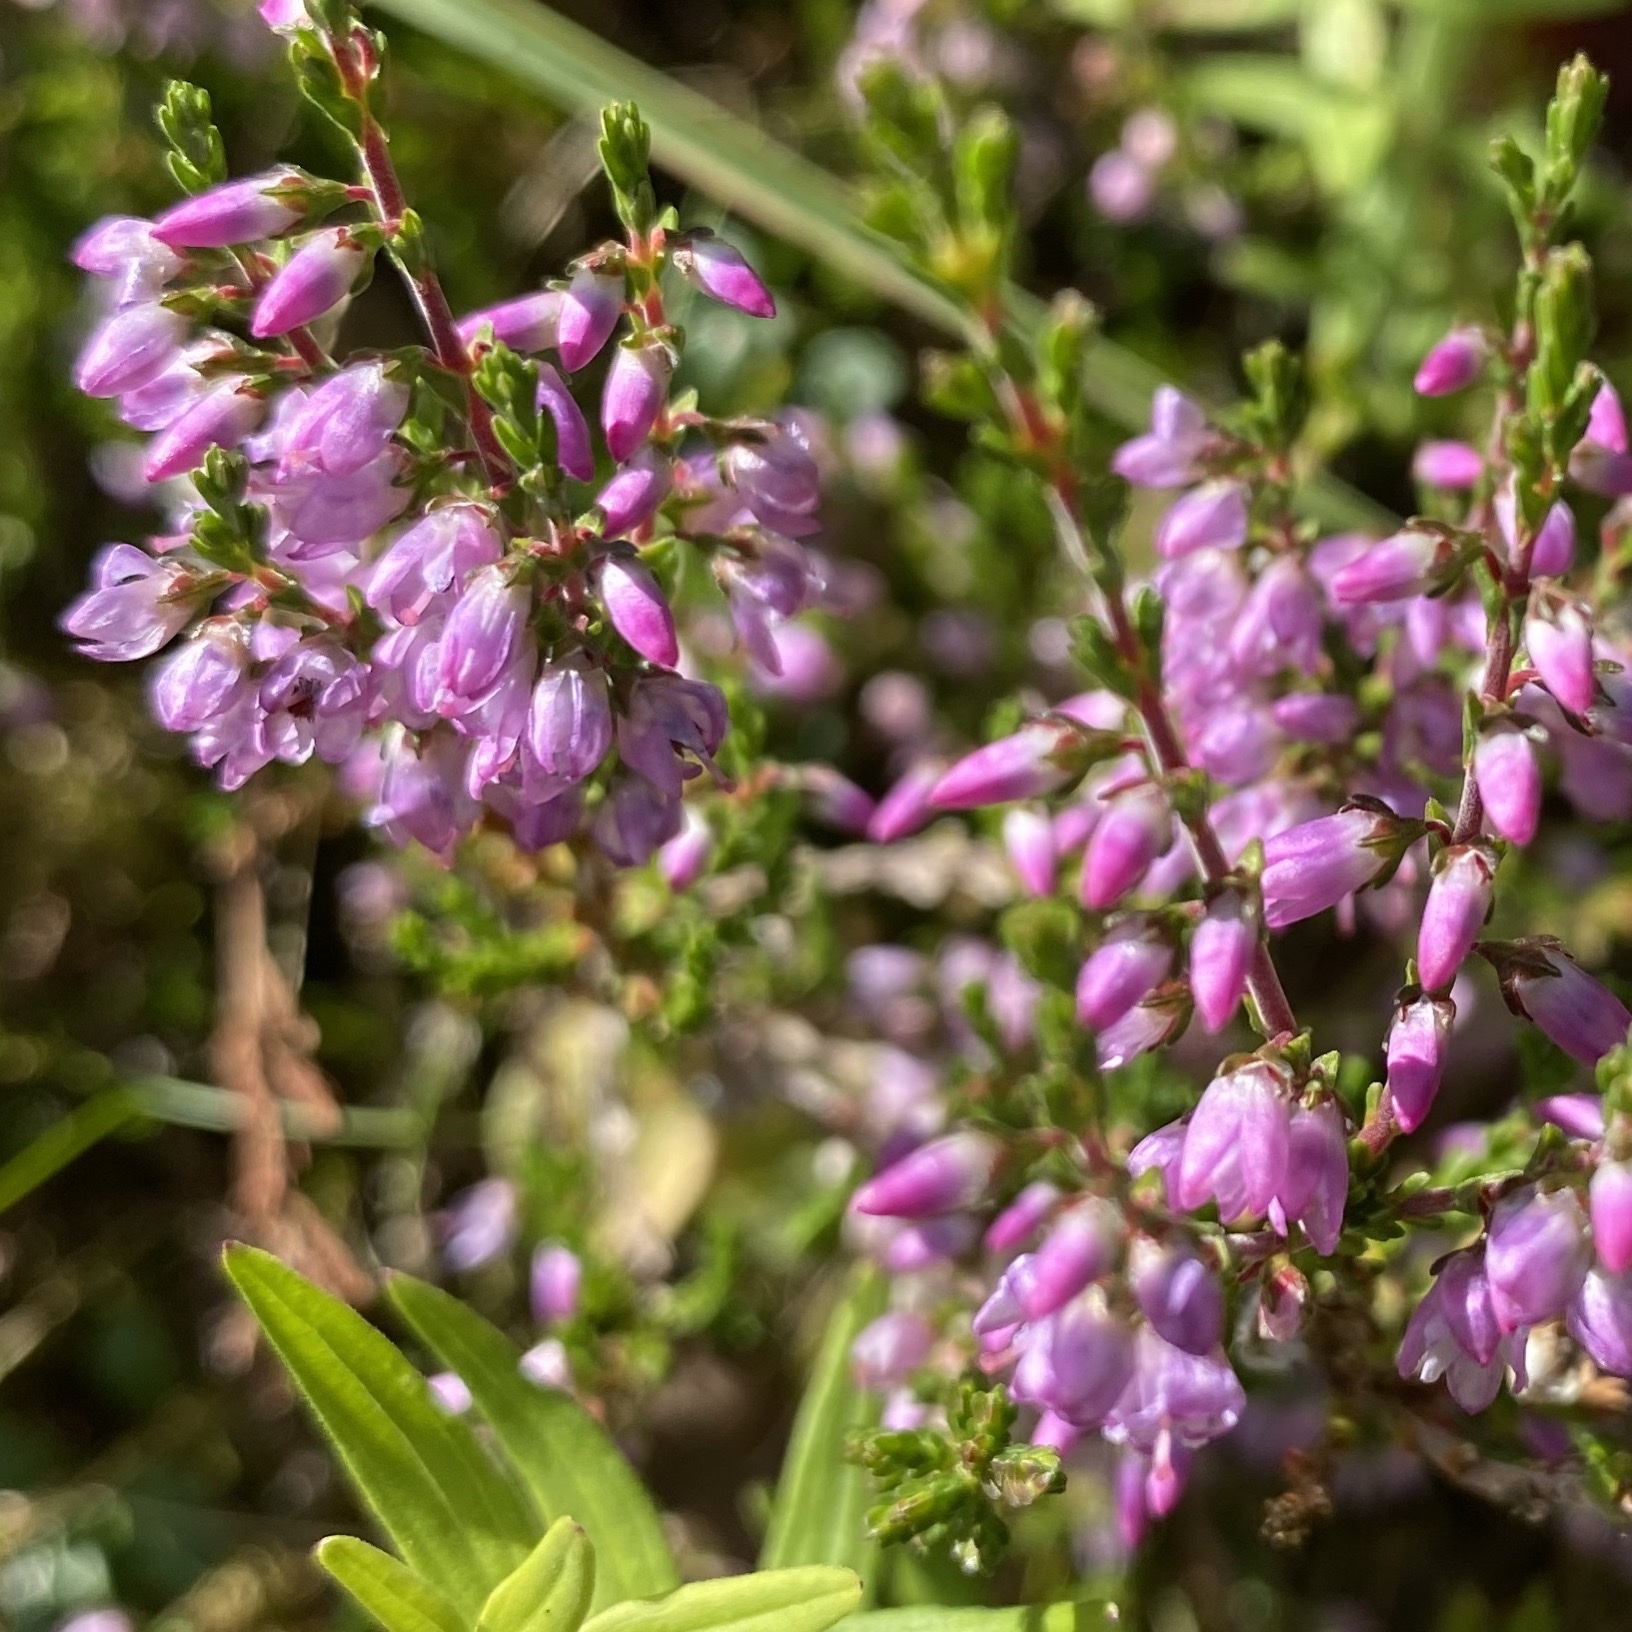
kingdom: Plantae
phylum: Tracheophyta
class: Magnoliopsida
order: Ericales
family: Ericaceae
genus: Calluna
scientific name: Calluna vulgaris
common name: Heather
